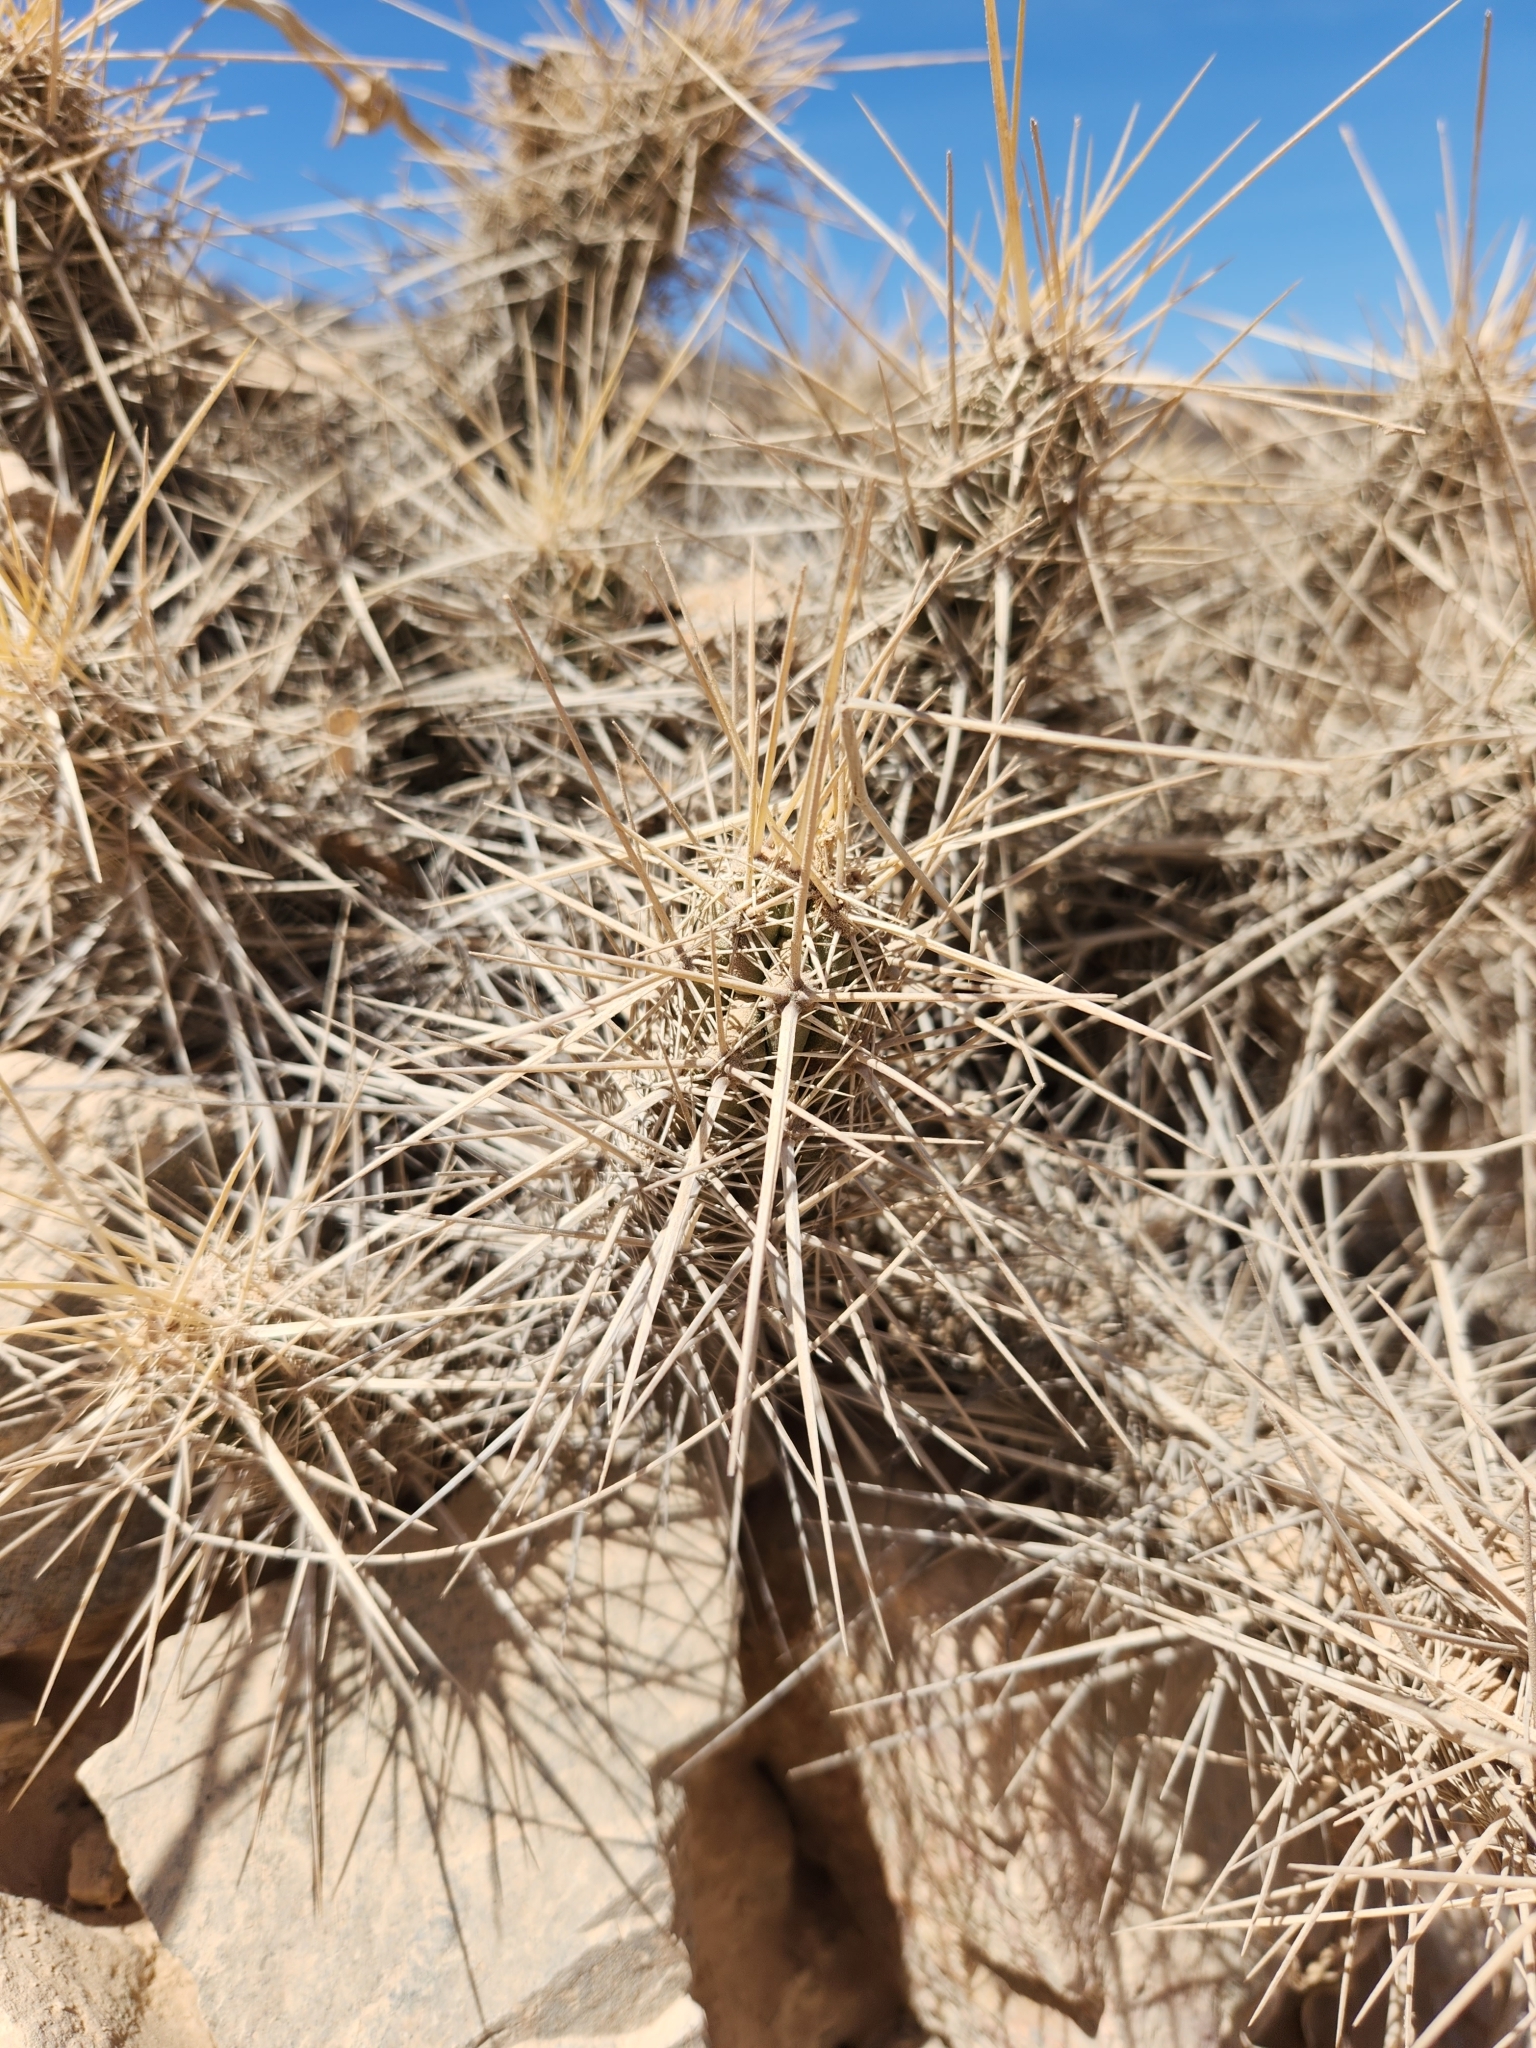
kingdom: Plantae
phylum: Tracheophyta
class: Magnoliopsida
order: Caryophyllales
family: Cactaceae
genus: Echinocereus
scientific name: Echinocereus brandegeei
